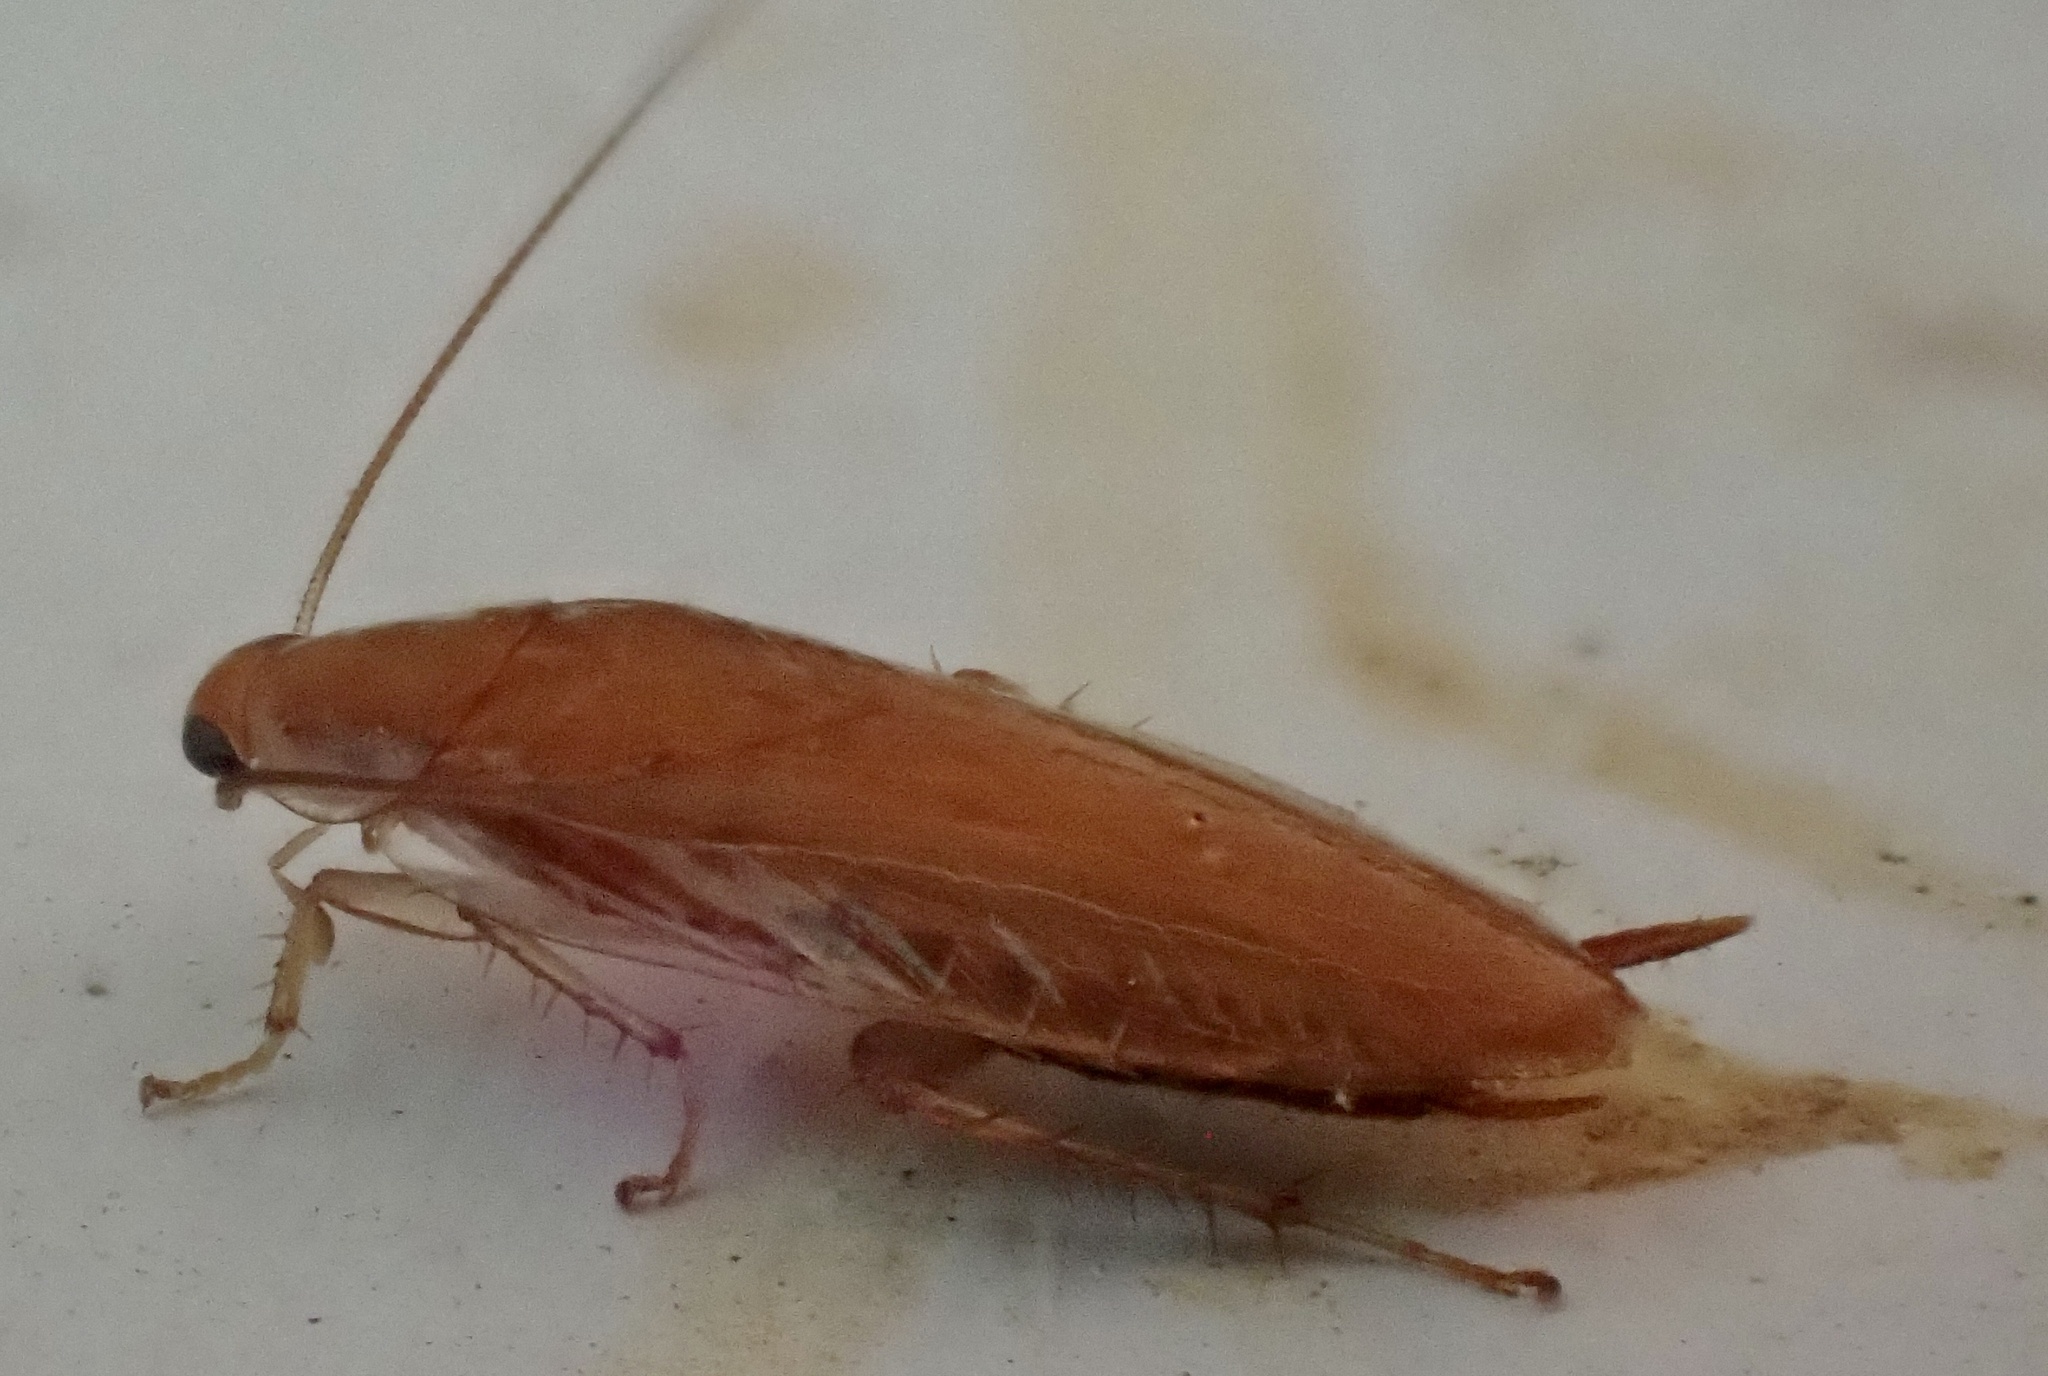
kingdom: Animalia
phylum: Arthropoda
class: Insecta
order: Blattodea
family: Ectobiidae
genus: Chorisoneura
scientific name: Chorisoneura texensis
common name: Small texas cockroach
